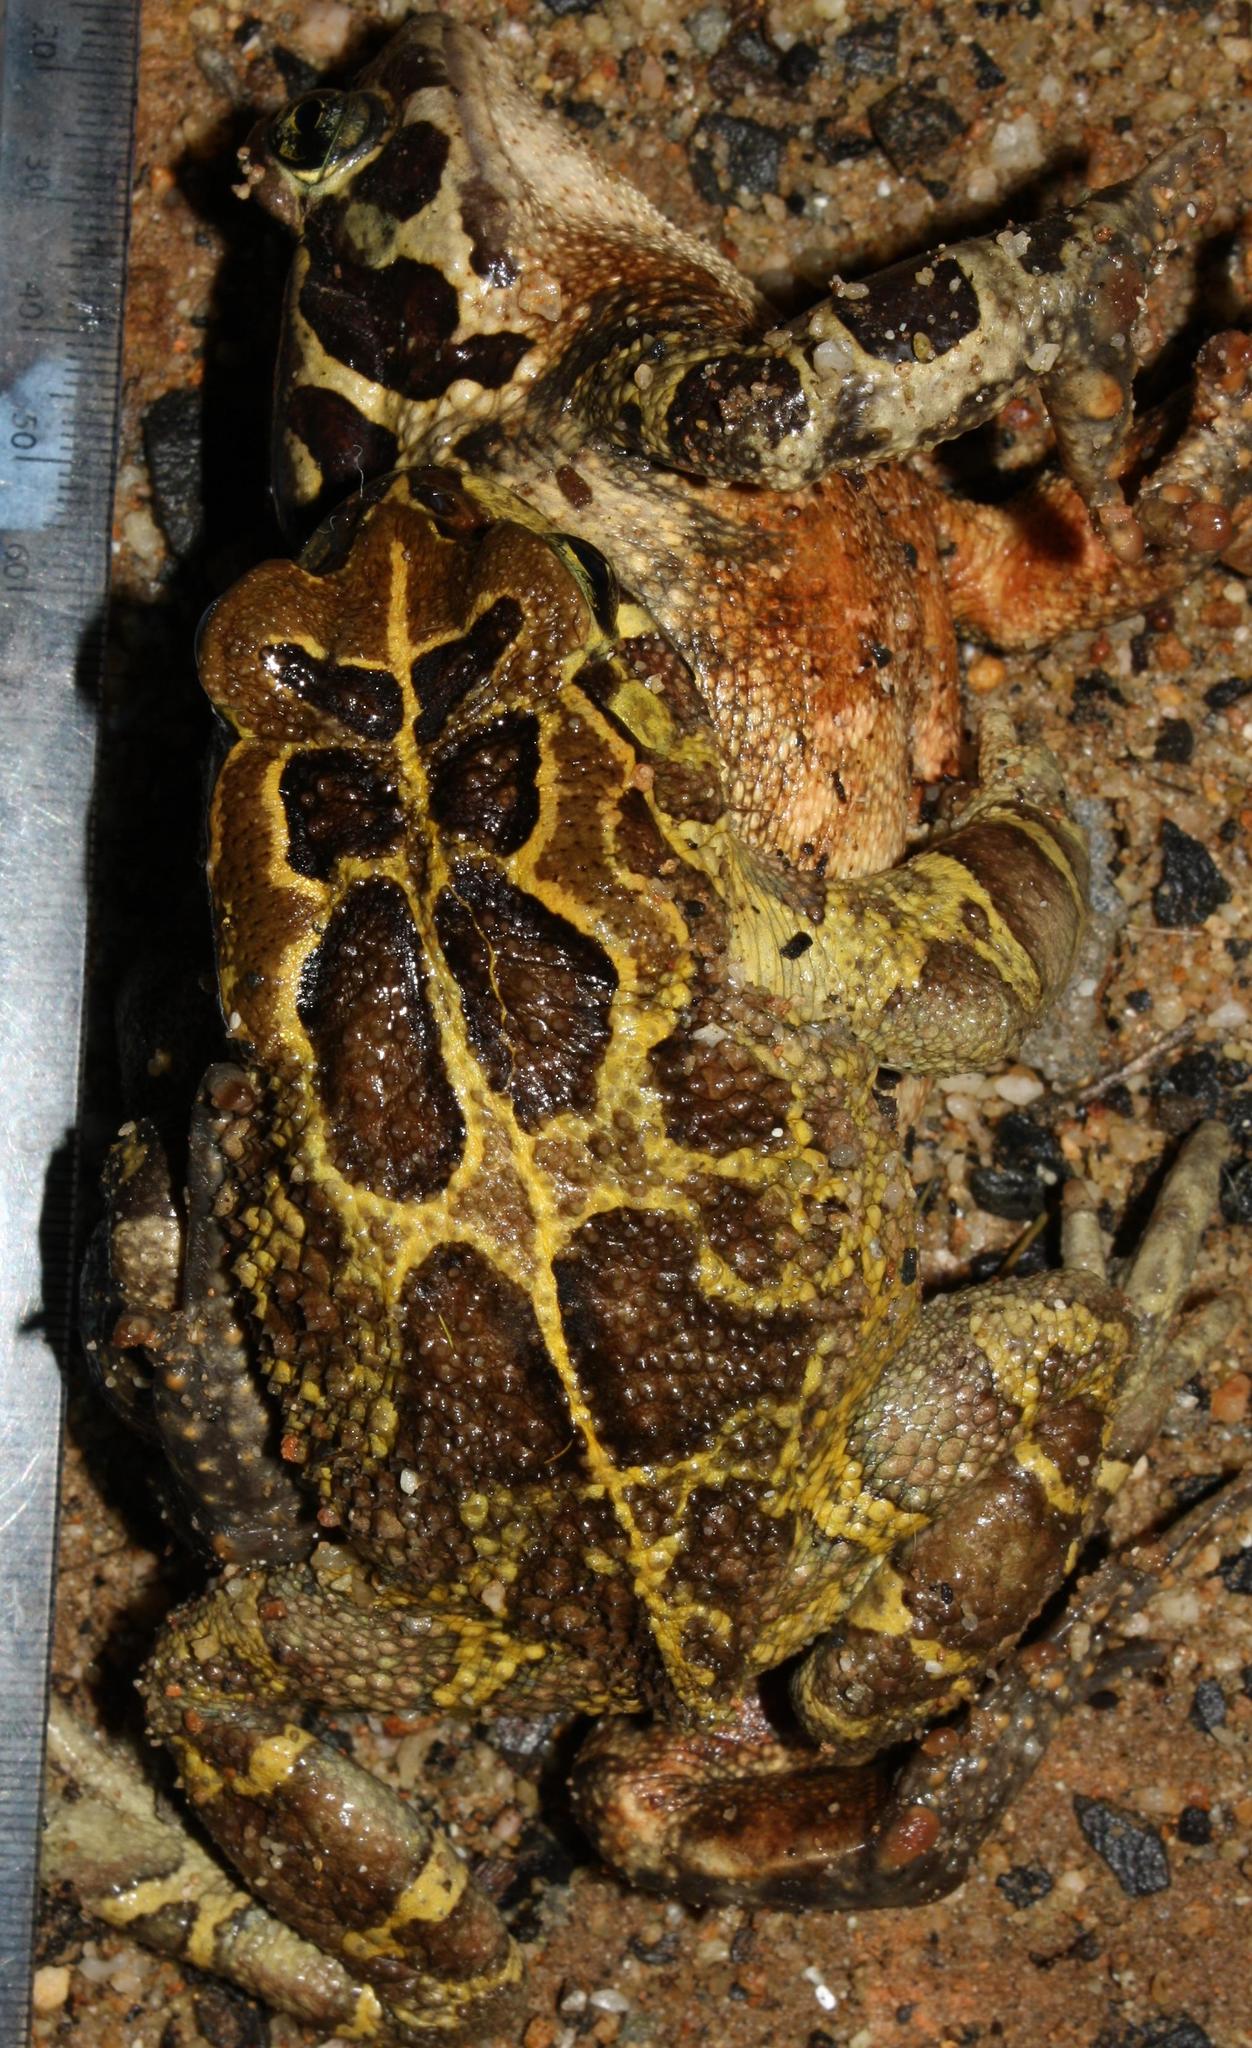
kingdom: Animalia
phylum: Chordata
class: Amphibia
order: Anura
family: Bufonidae
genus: Sclerophrys
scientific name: Sclerophrys pantherina
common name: Panther toad
